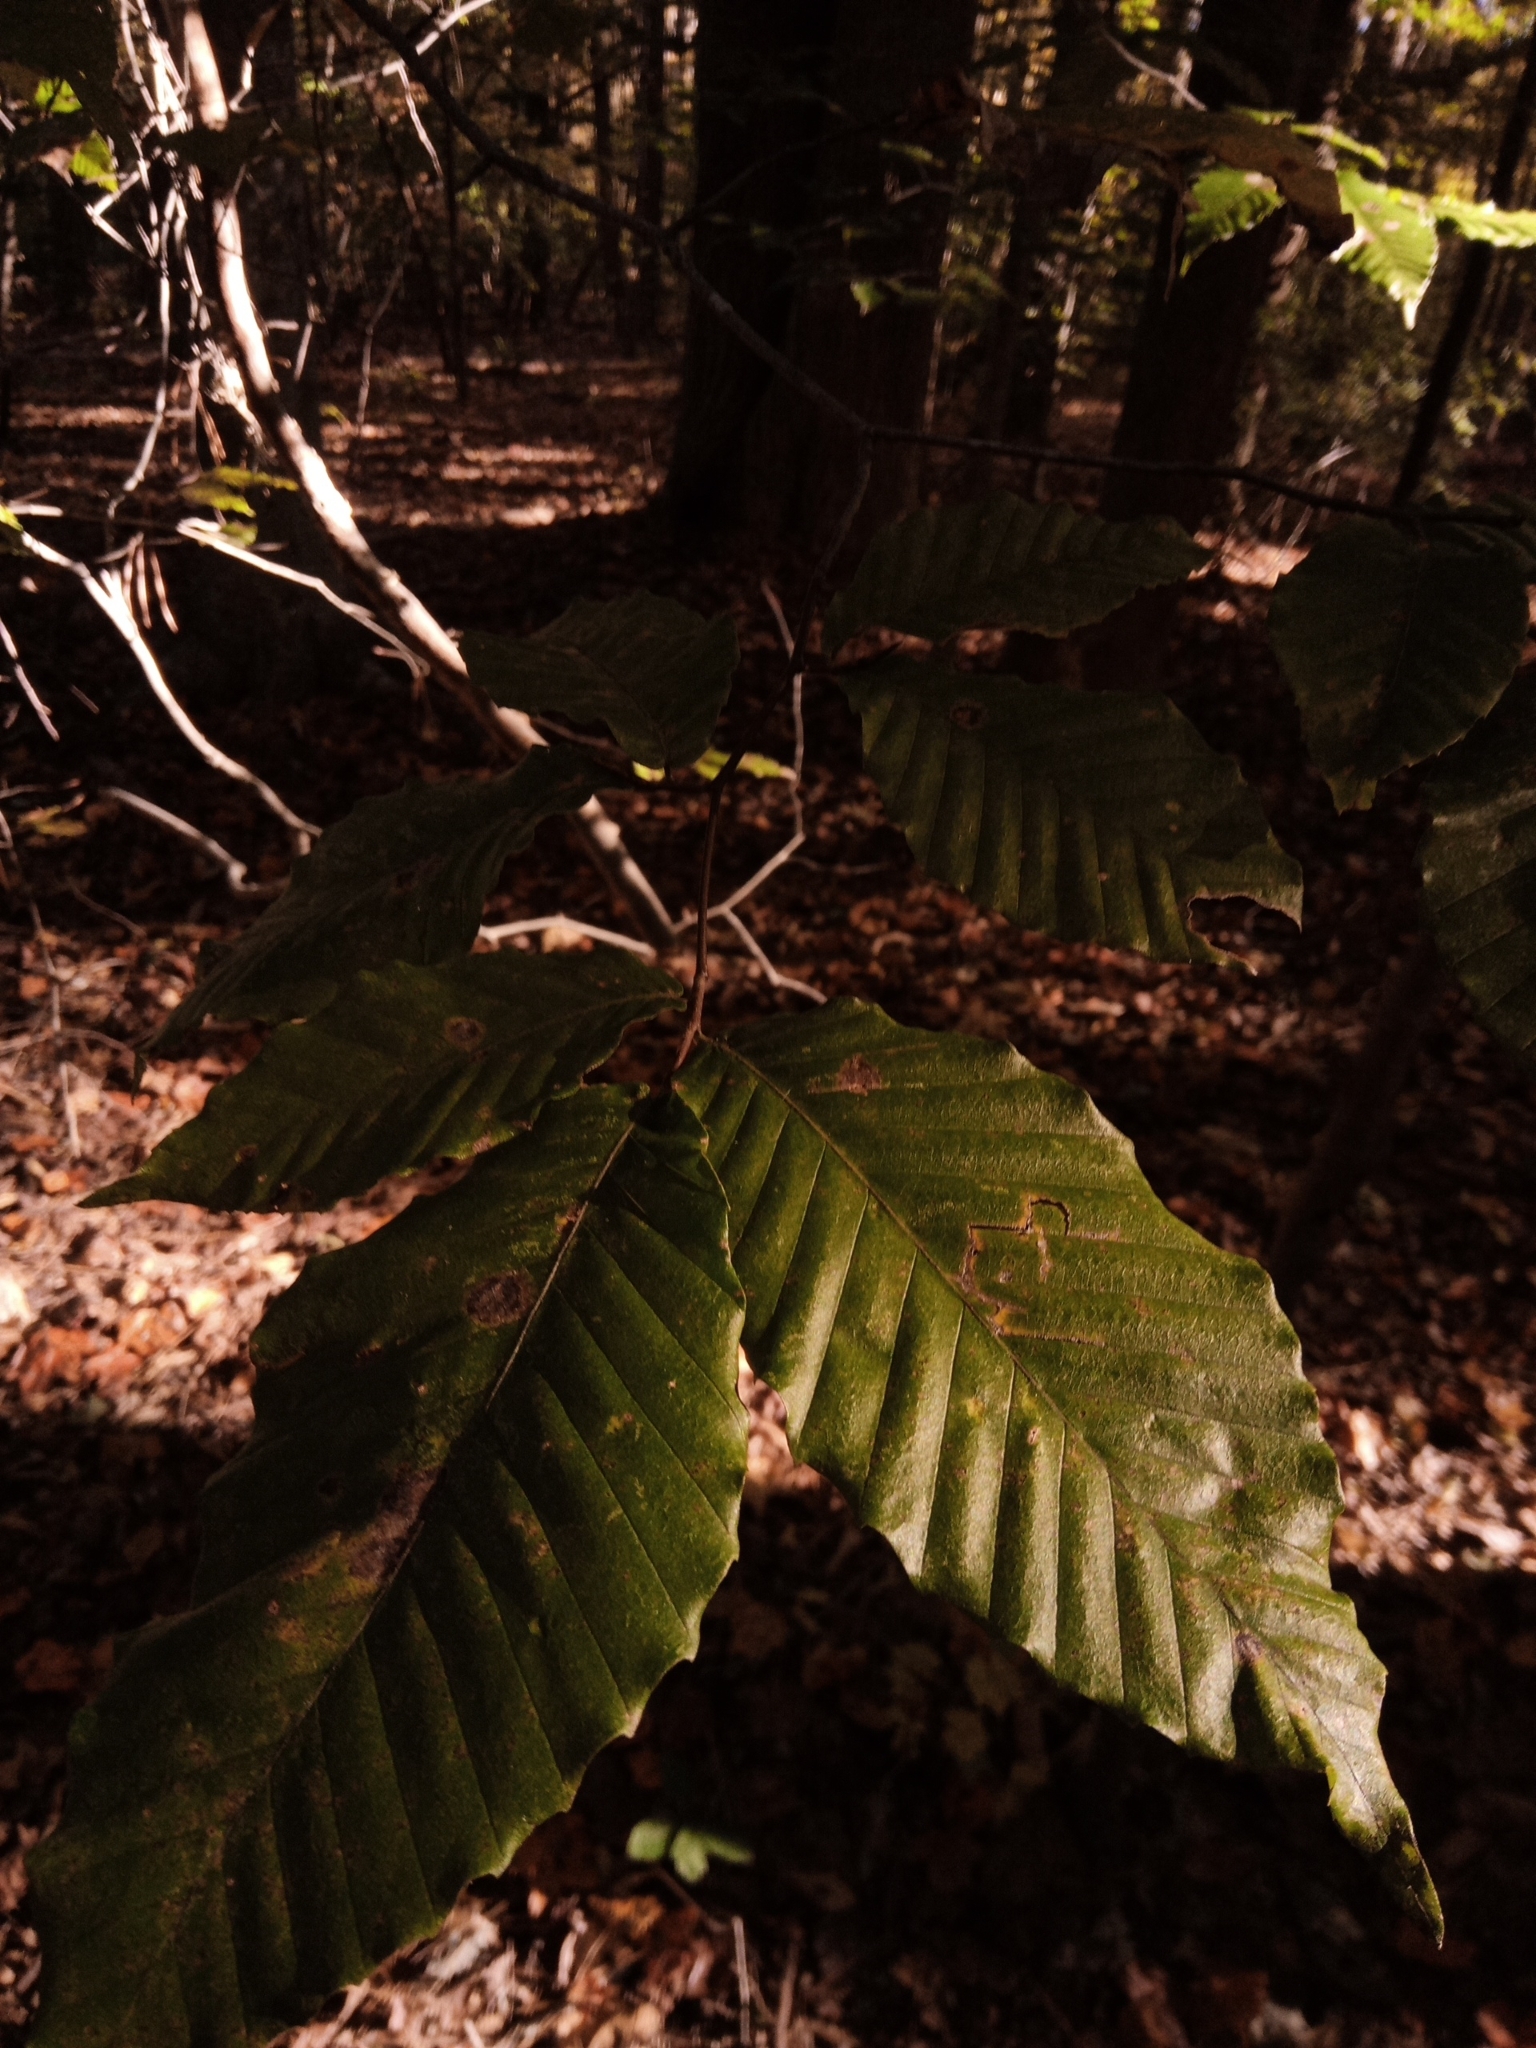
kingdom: Plantae
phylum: Tracheophyta
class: Magnoliopsida
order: Fagales
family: Fagaceae
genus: Fagus
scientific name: Fagus grandifolia
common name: American beech
